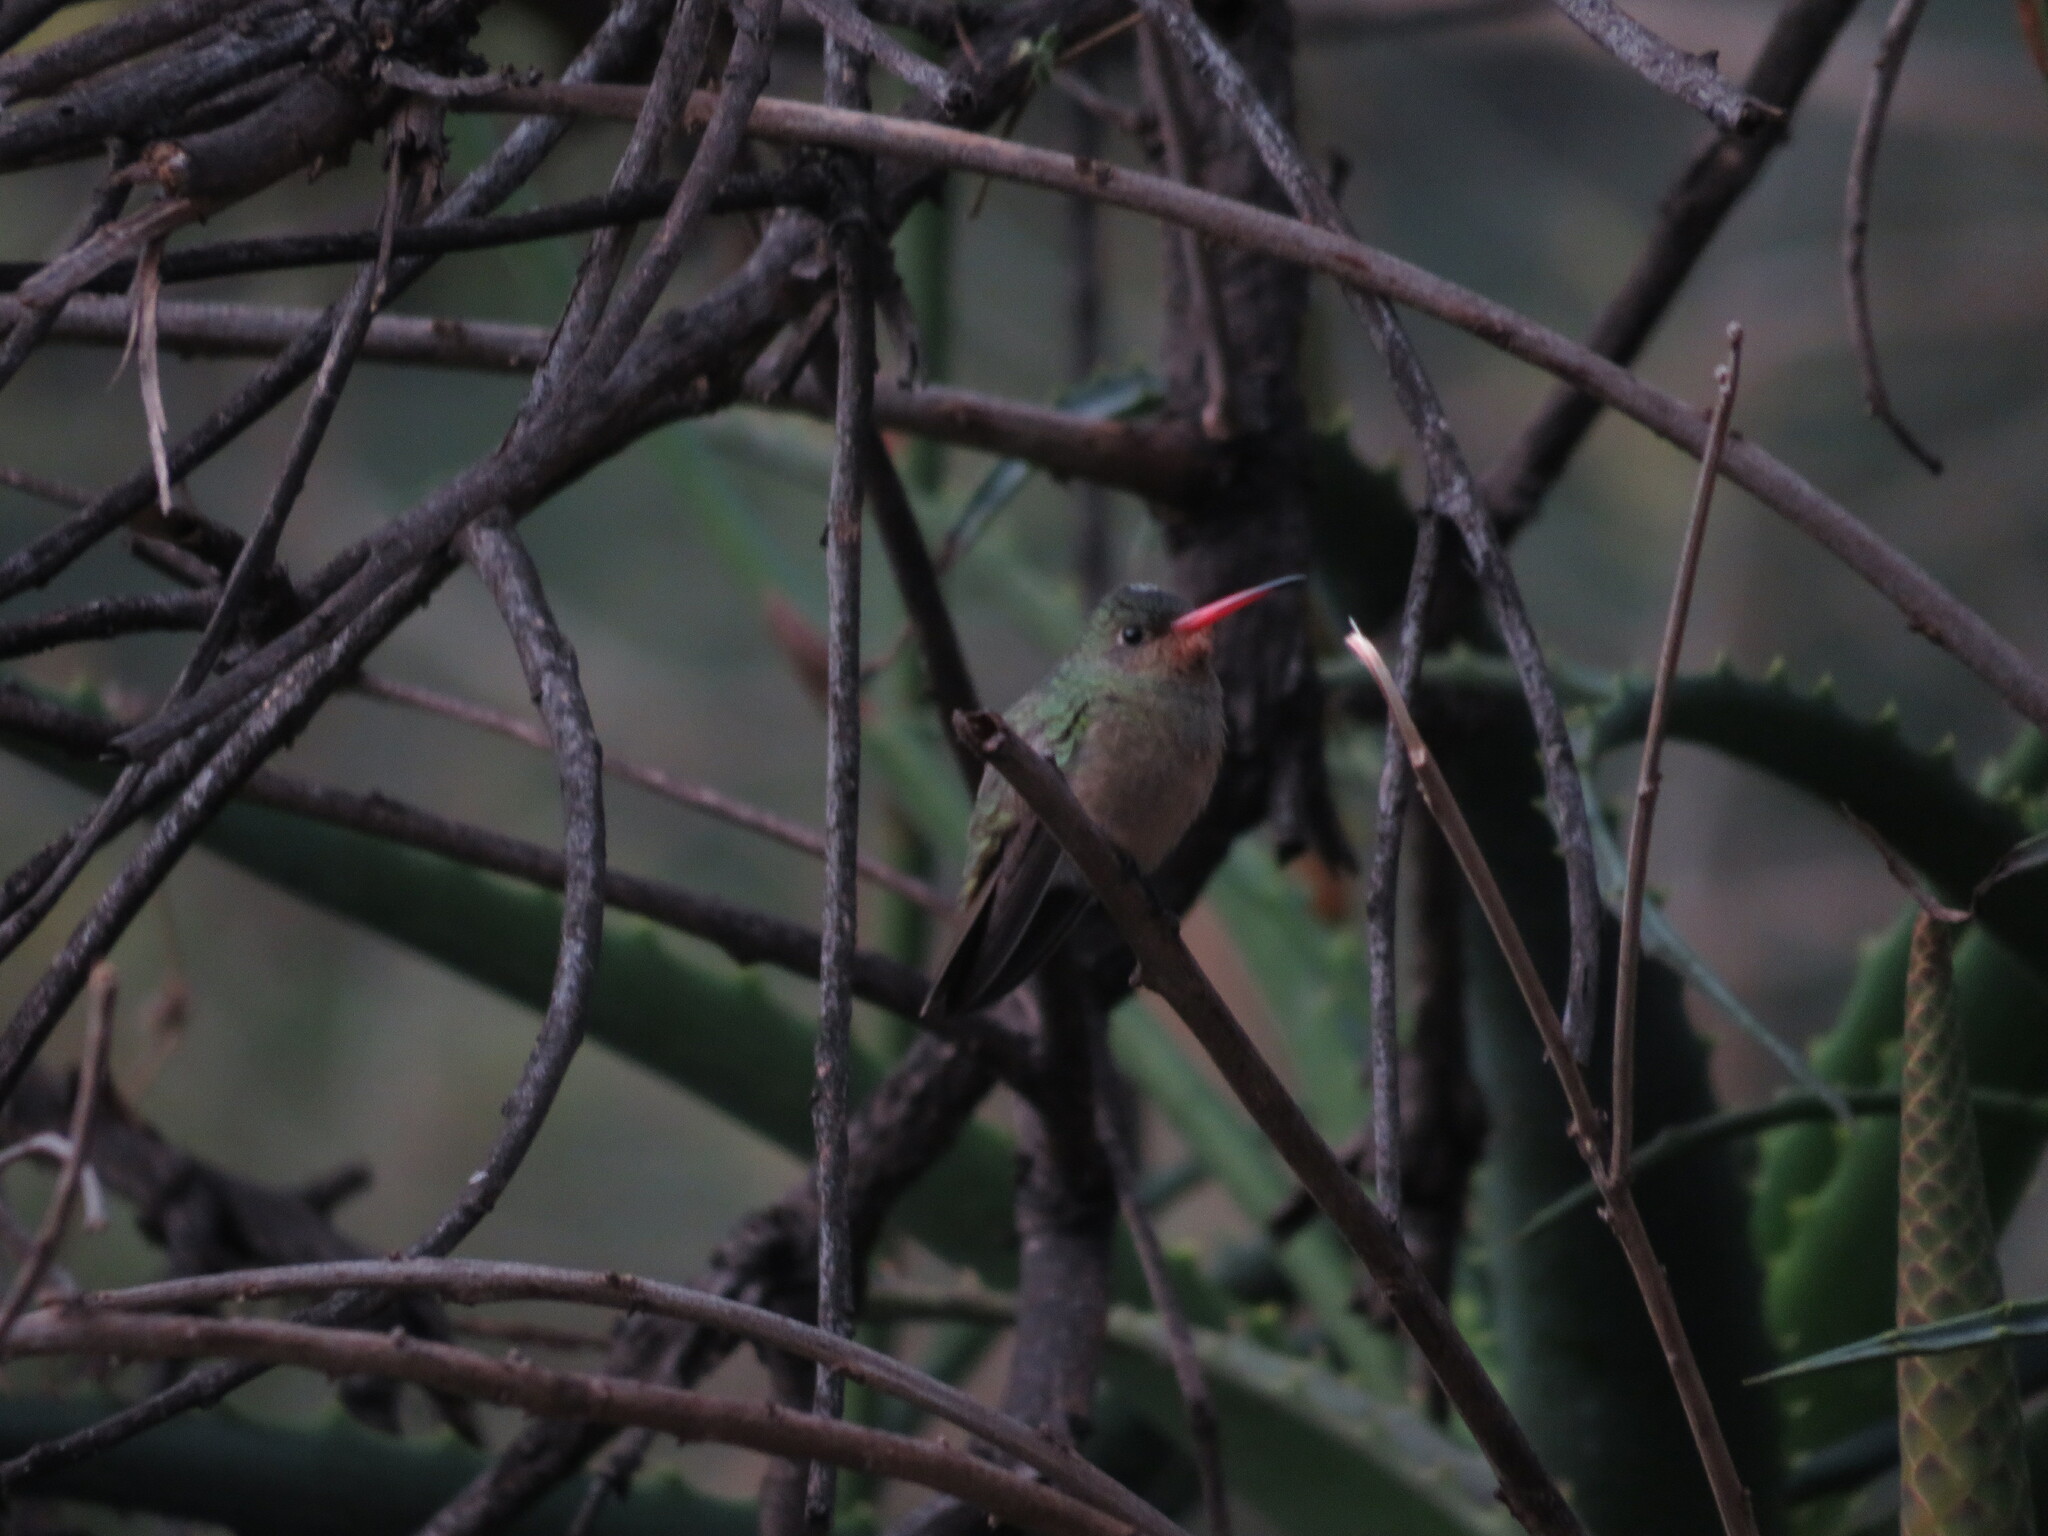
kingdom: Animalia
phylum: Chordata
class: Aves
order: Apodiformes
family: Trochilidae
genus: Hylocharis
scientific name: Hylocharis chrysura
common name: Gilded sapphire
